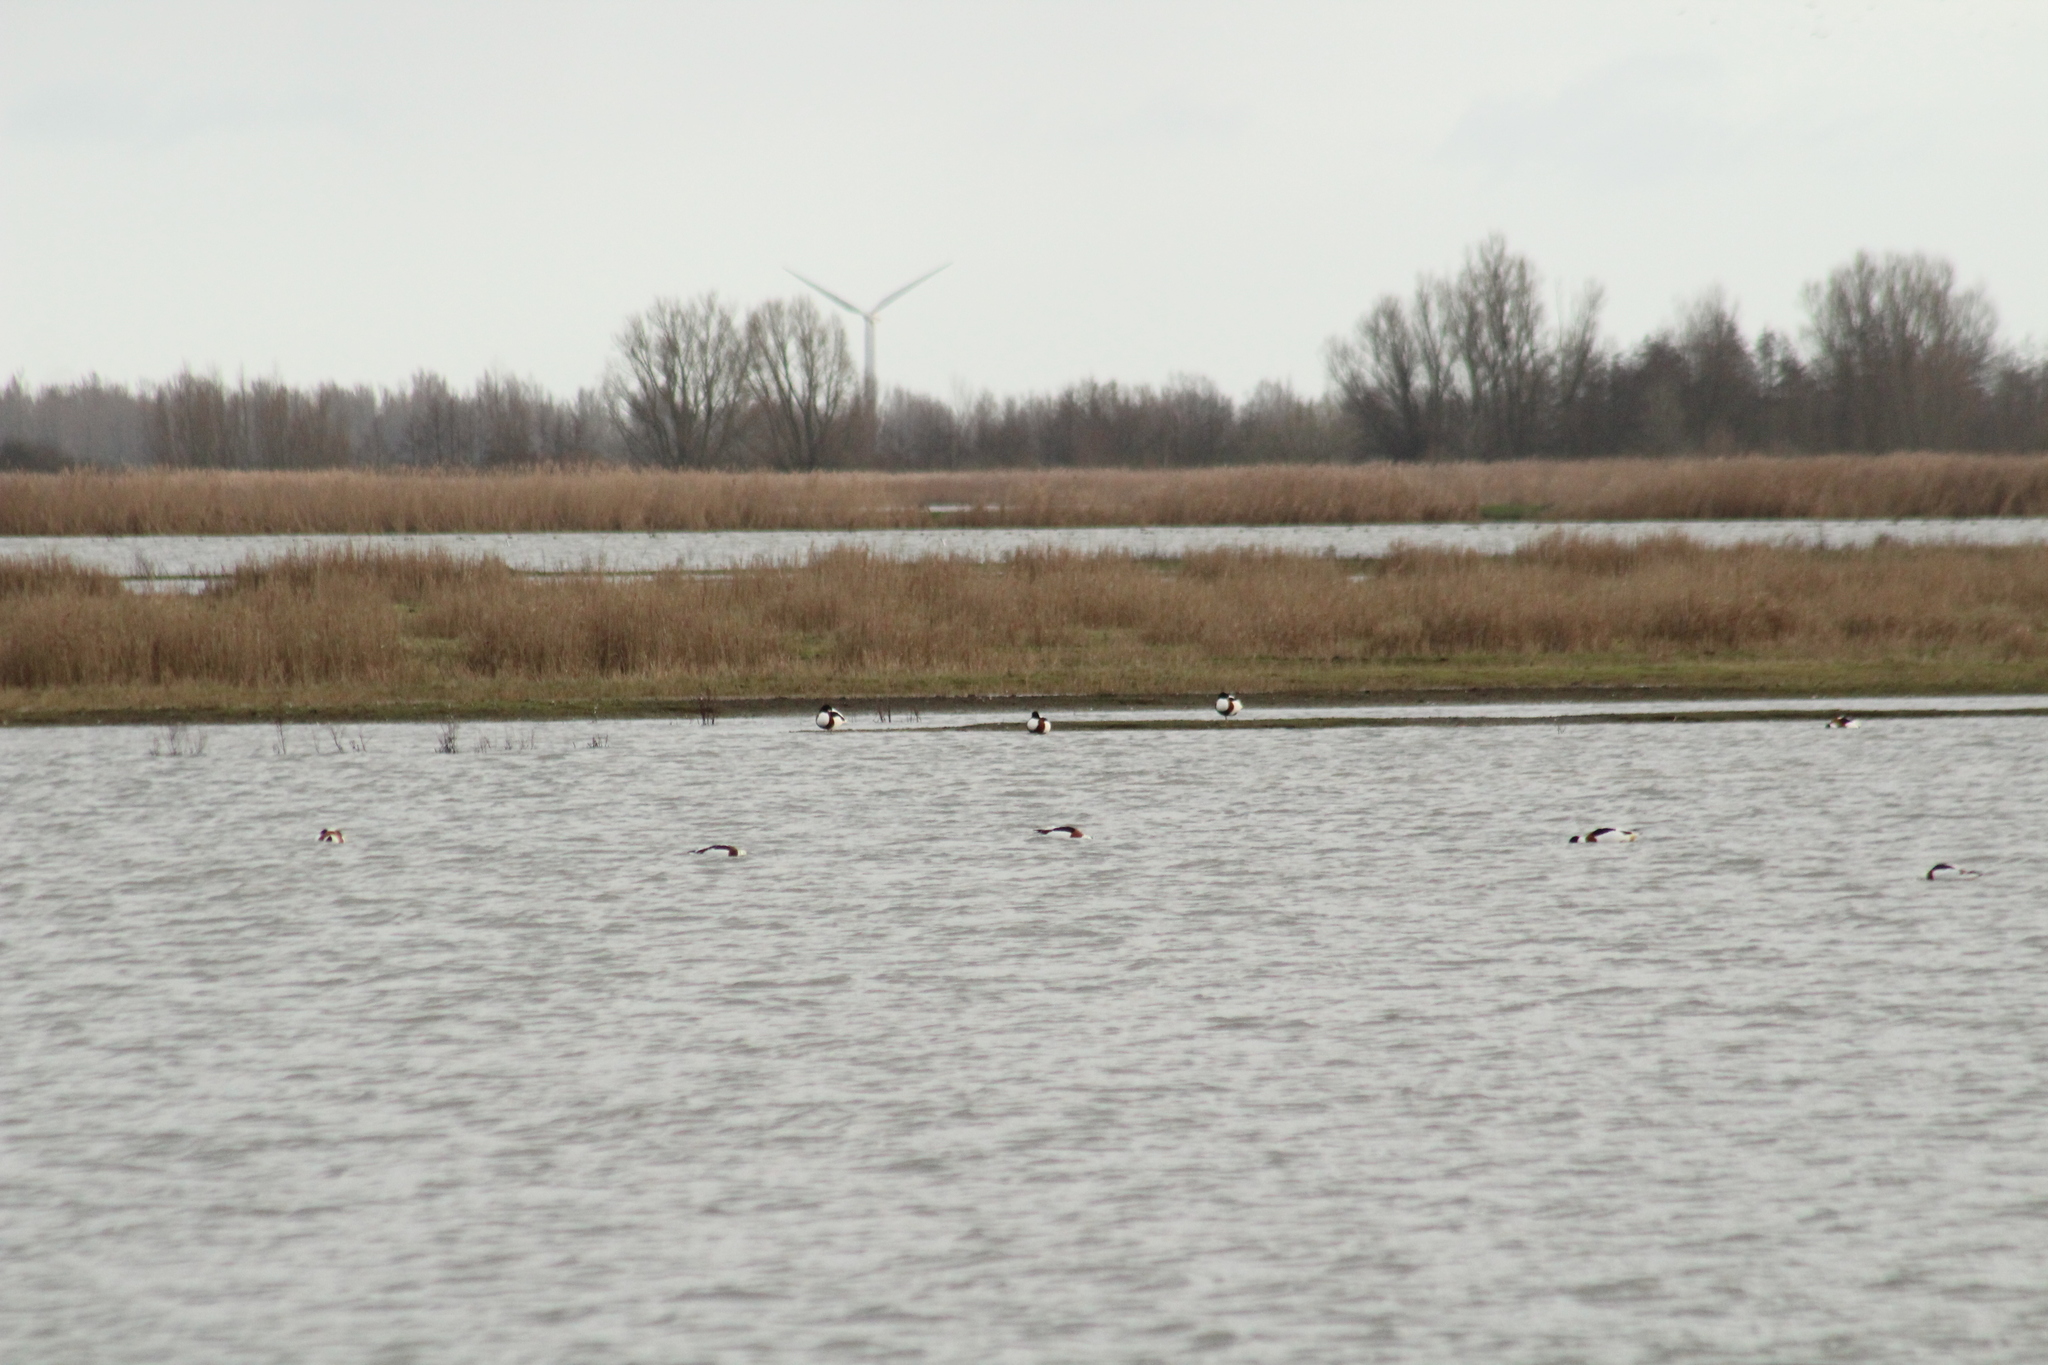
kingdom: Animalia
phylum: Chordata
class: Aves
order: Anseriformes
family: Anatidae
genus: Tadorna
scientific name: Tadorna tadorna
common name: Common shelduck
